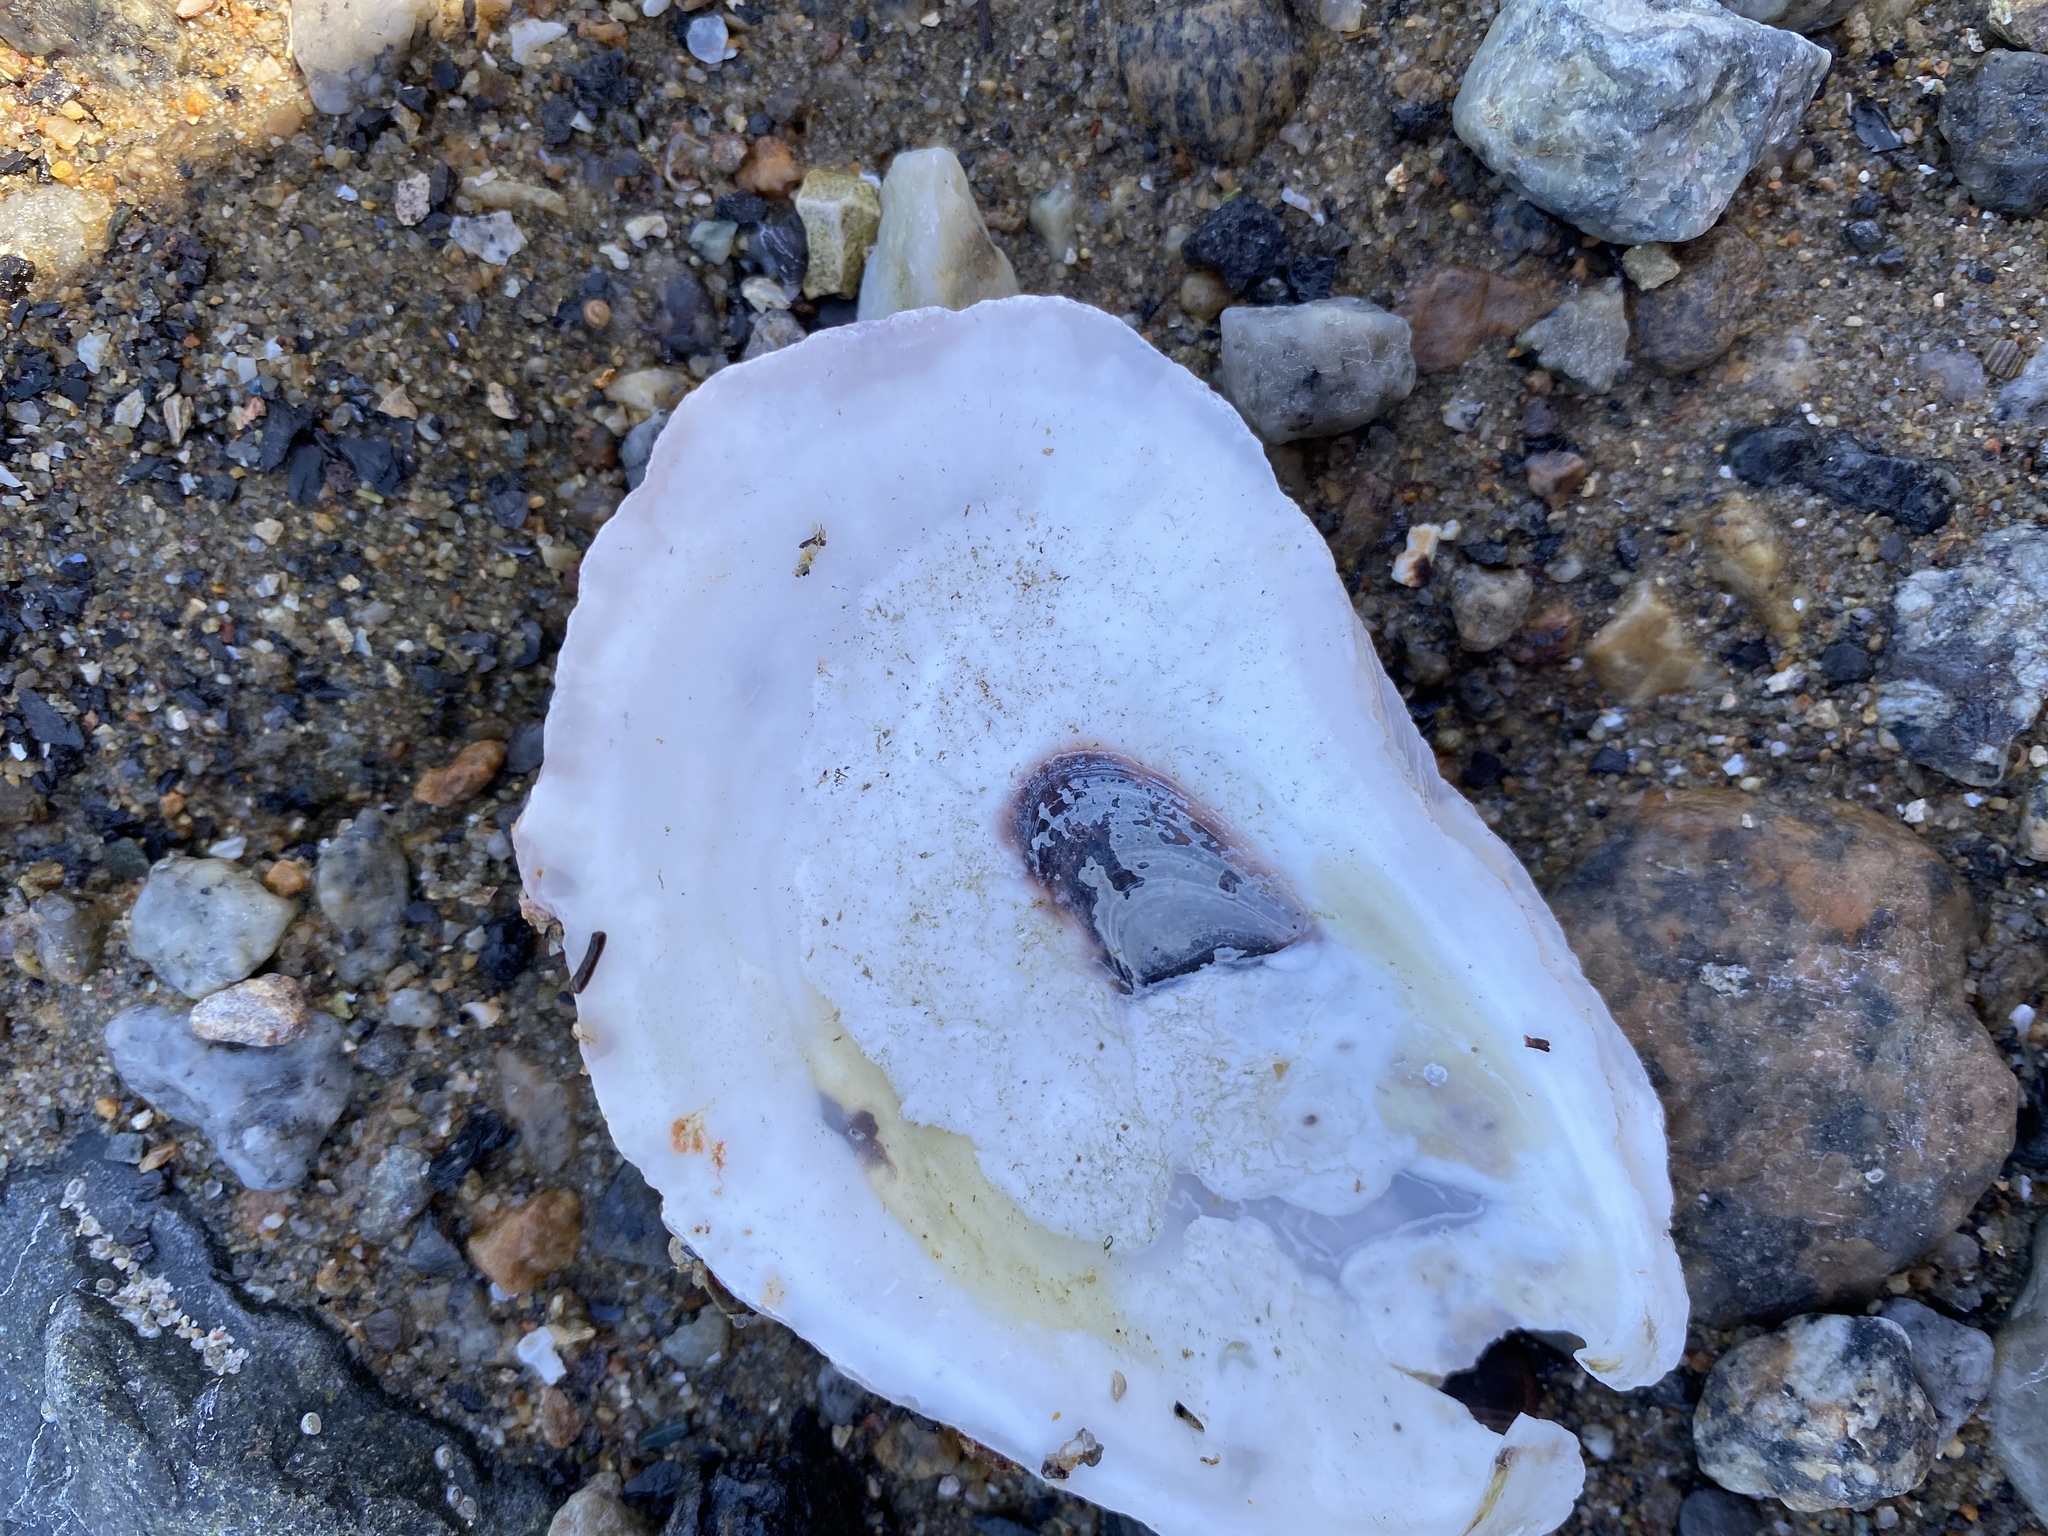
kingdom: Animalia
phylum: Mollusca
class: Bivalvia
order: Ostreida
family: Ostreidae
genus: Crassostrea
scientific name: Crassostrea virginica
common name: American oyster
